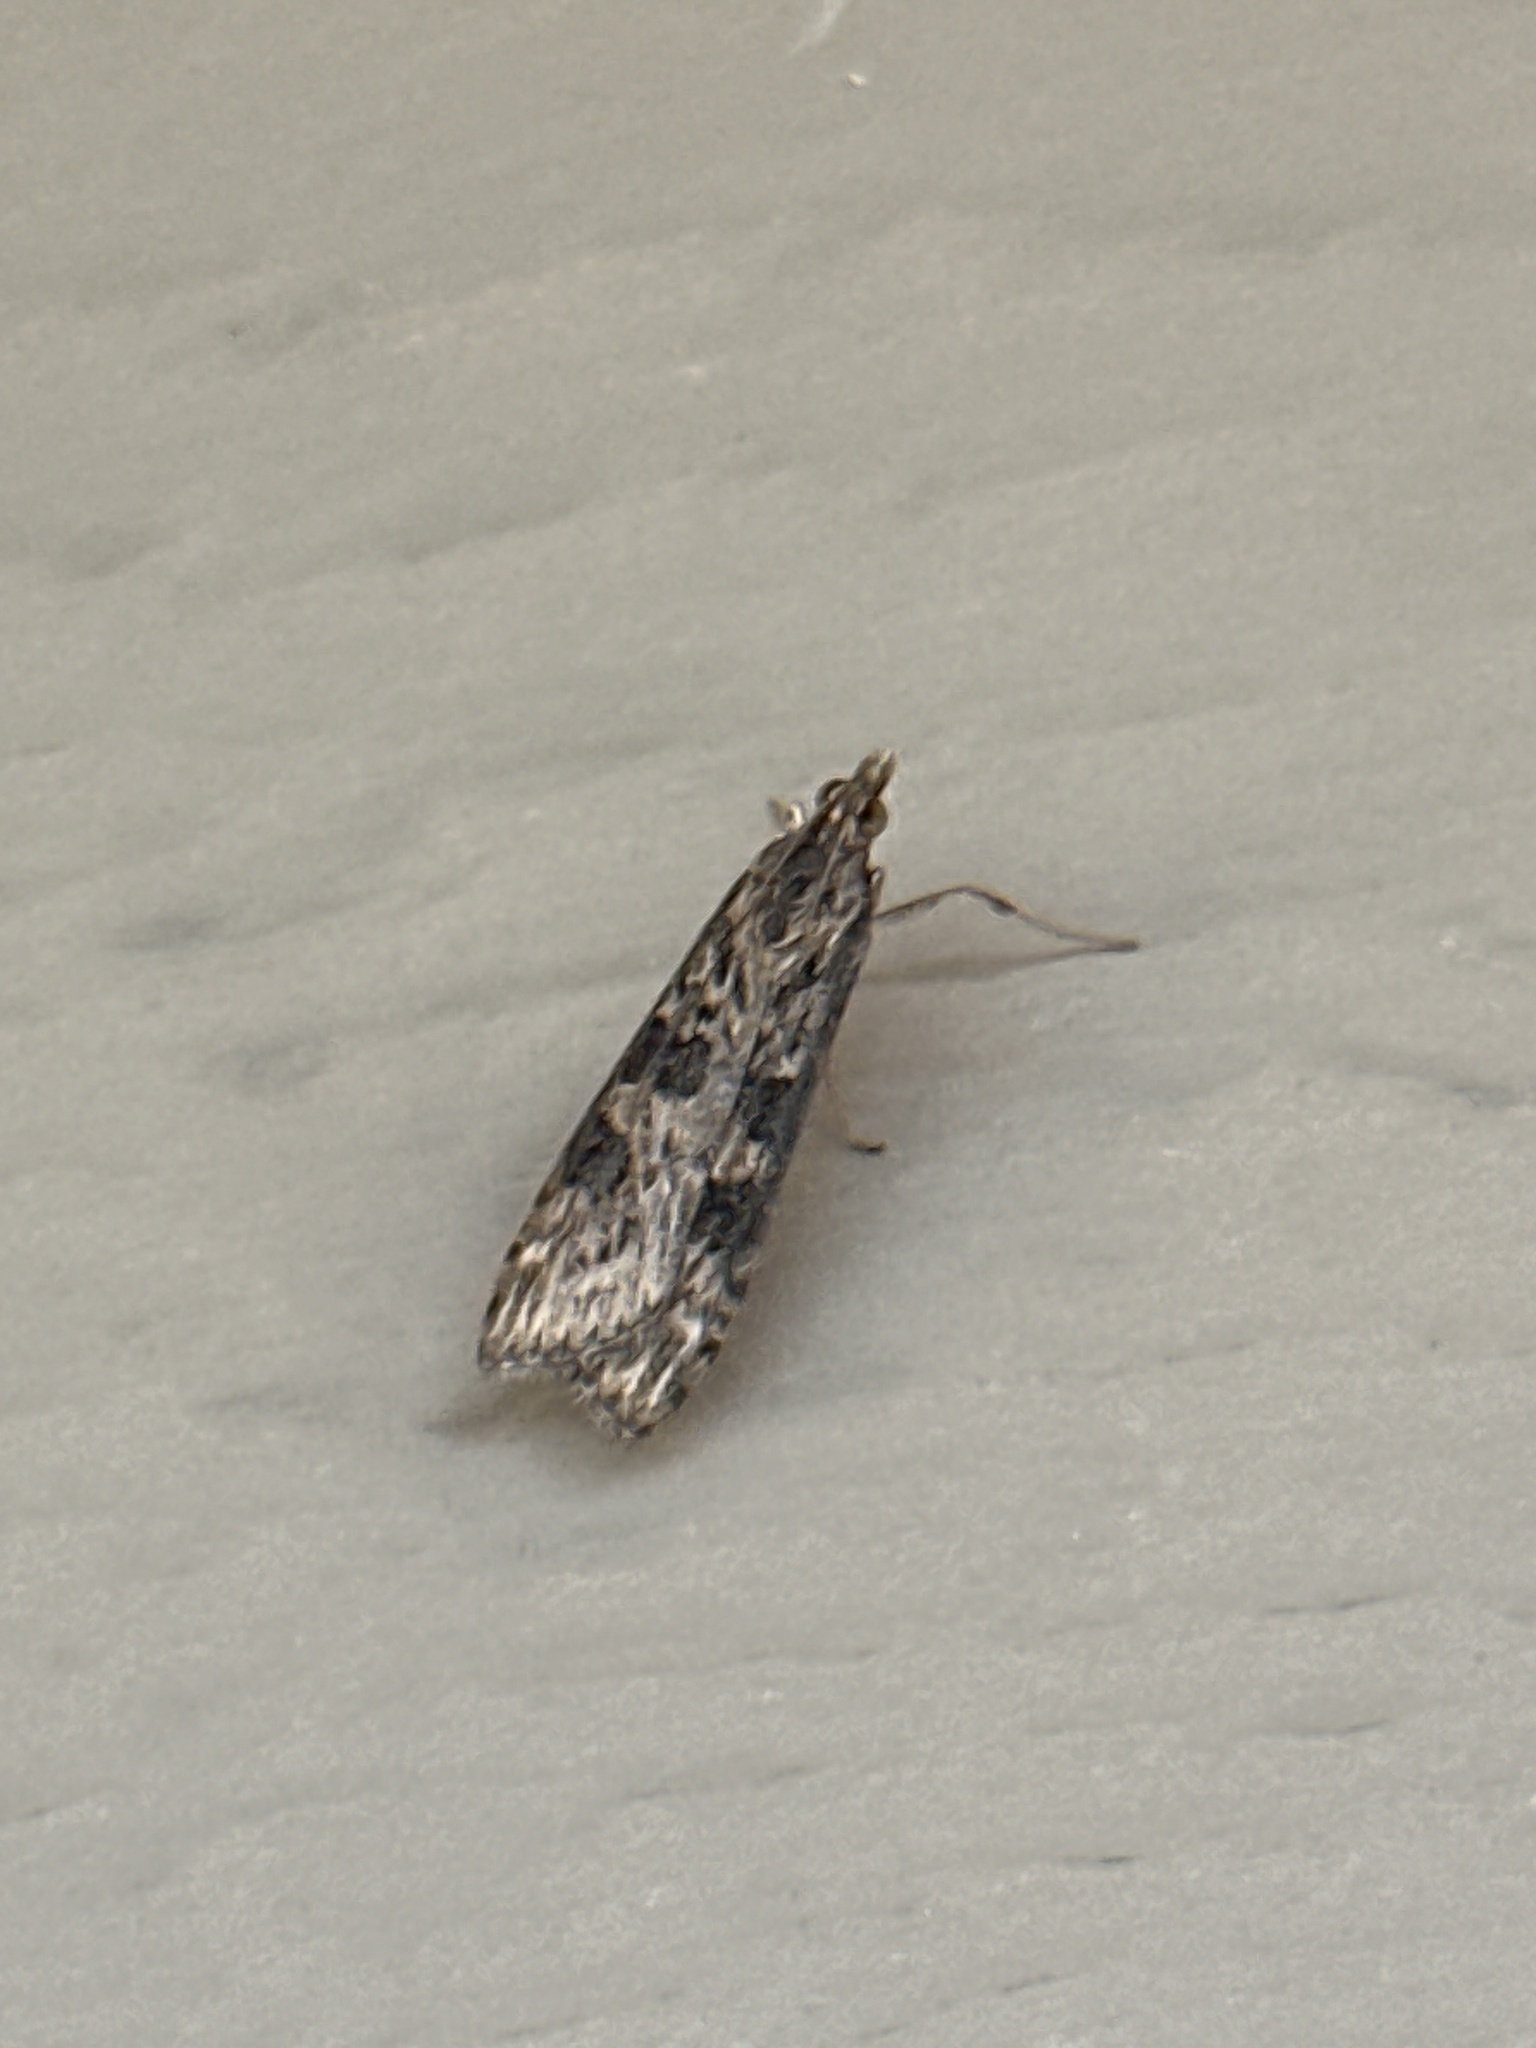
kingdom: Animalia
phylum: Arthropoda
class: Insecta
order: Lepidoptera
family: Crambidae
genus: Nomophila
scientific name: Nomophila nearctica
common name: American rush veneer
